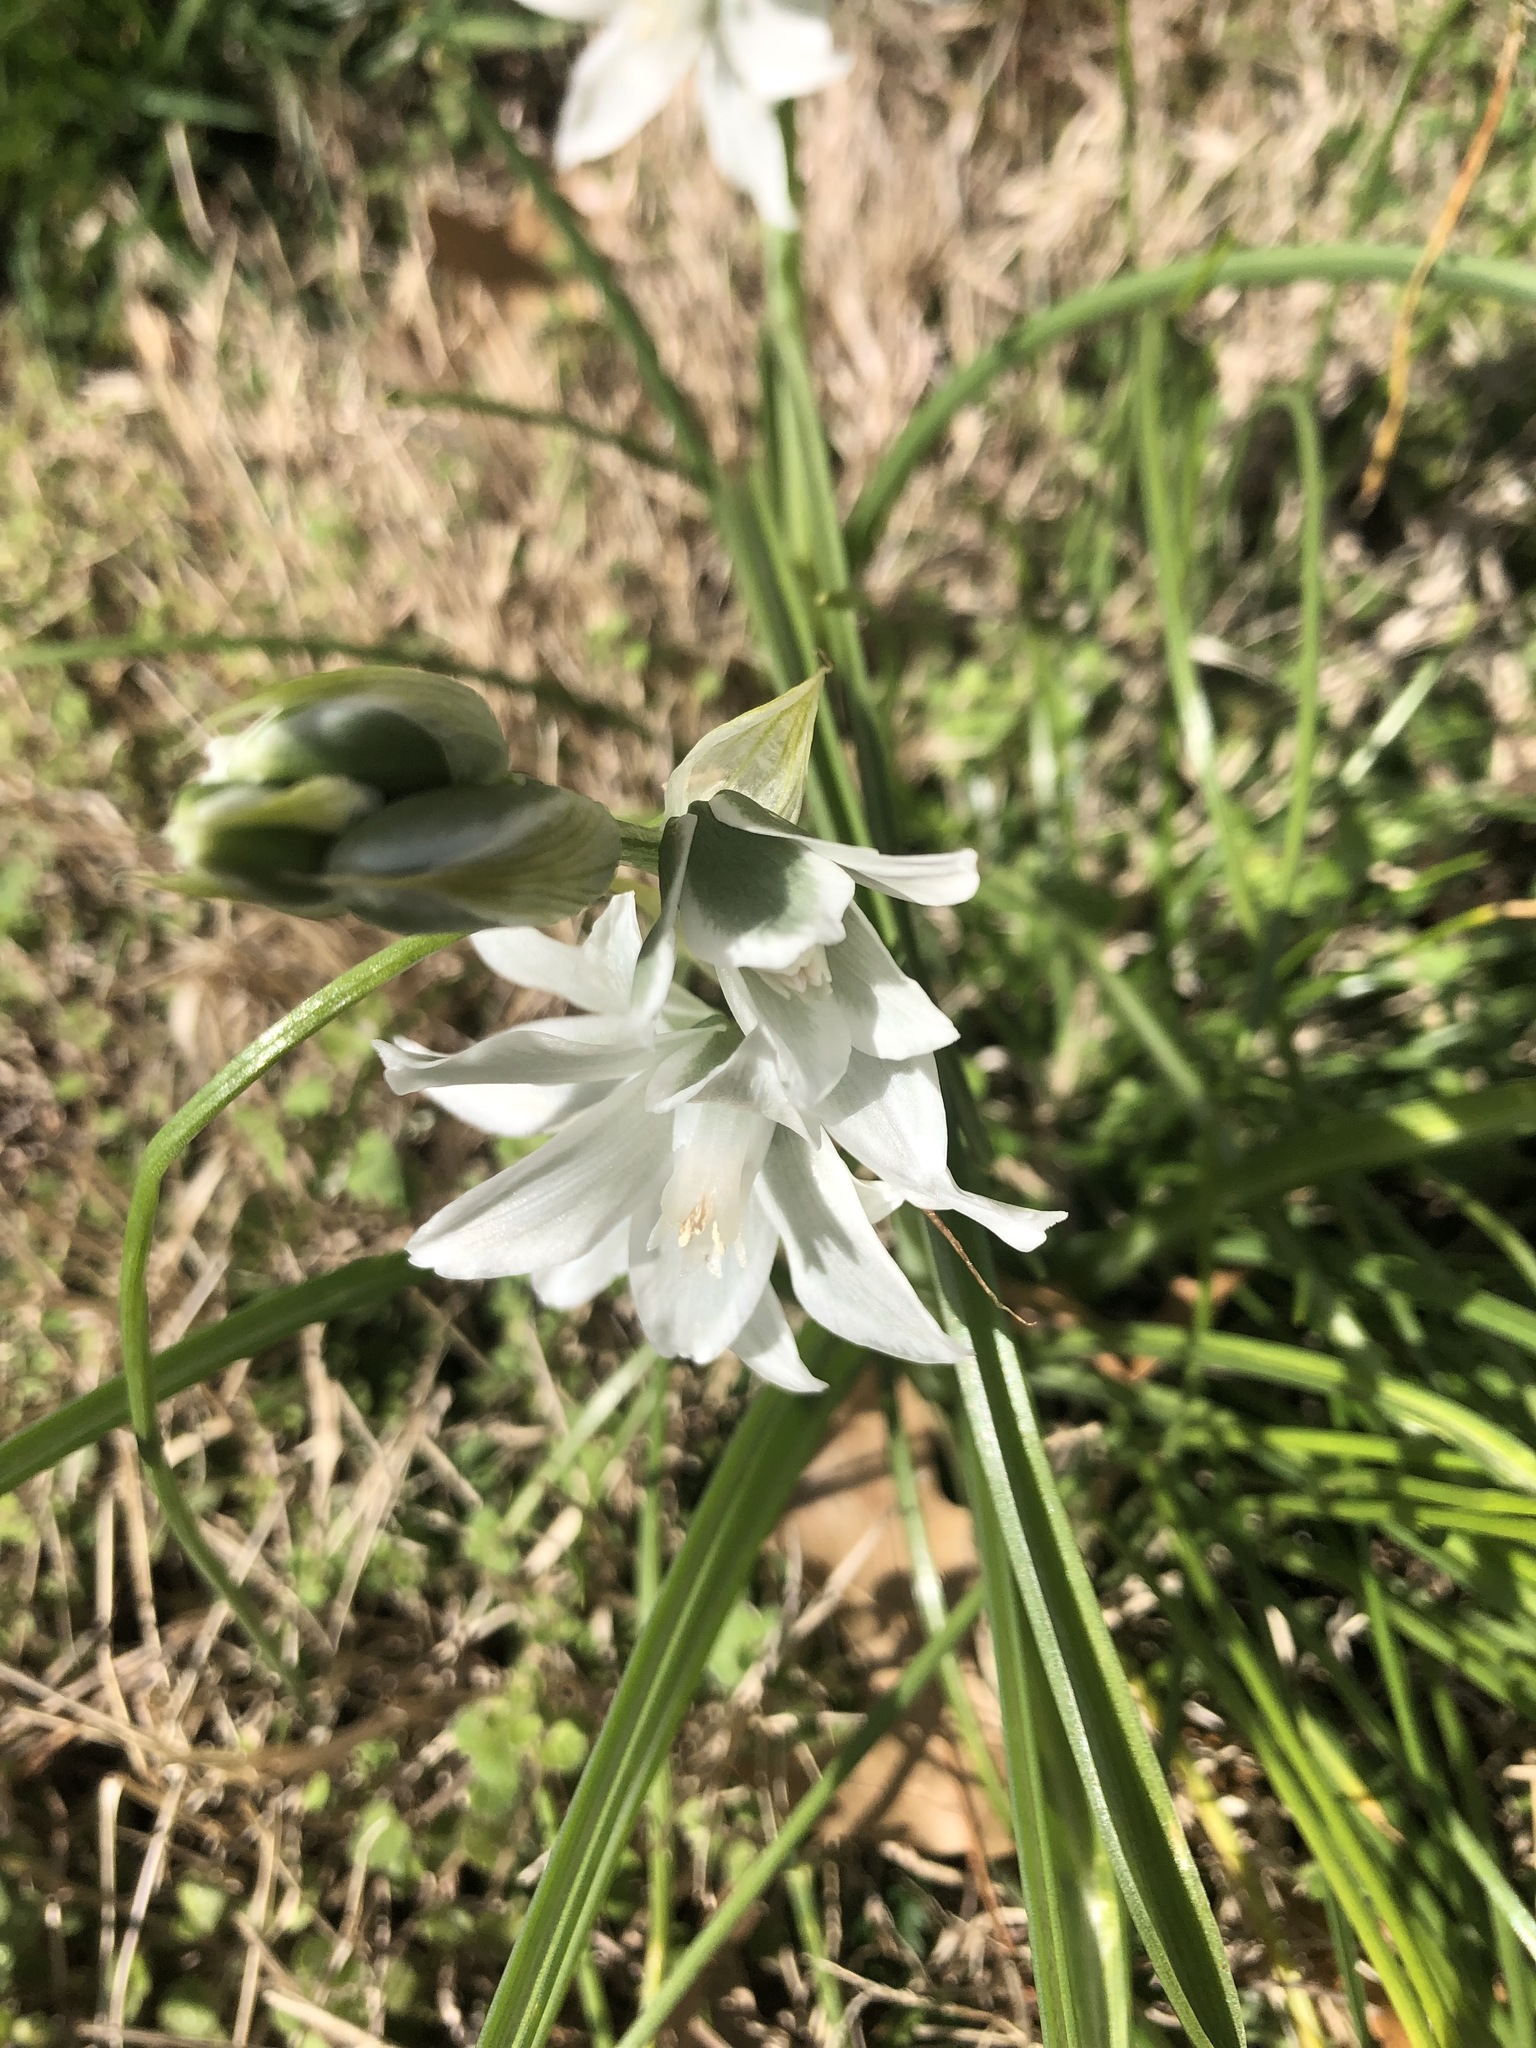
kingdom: Plantae
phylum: Tracheophyta
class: Liliopsida
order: Asparagales
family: Asparagaceae
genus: Ornithogalum
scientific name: Ornithogalum nutans
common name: Drooping star-of-bethlehem
